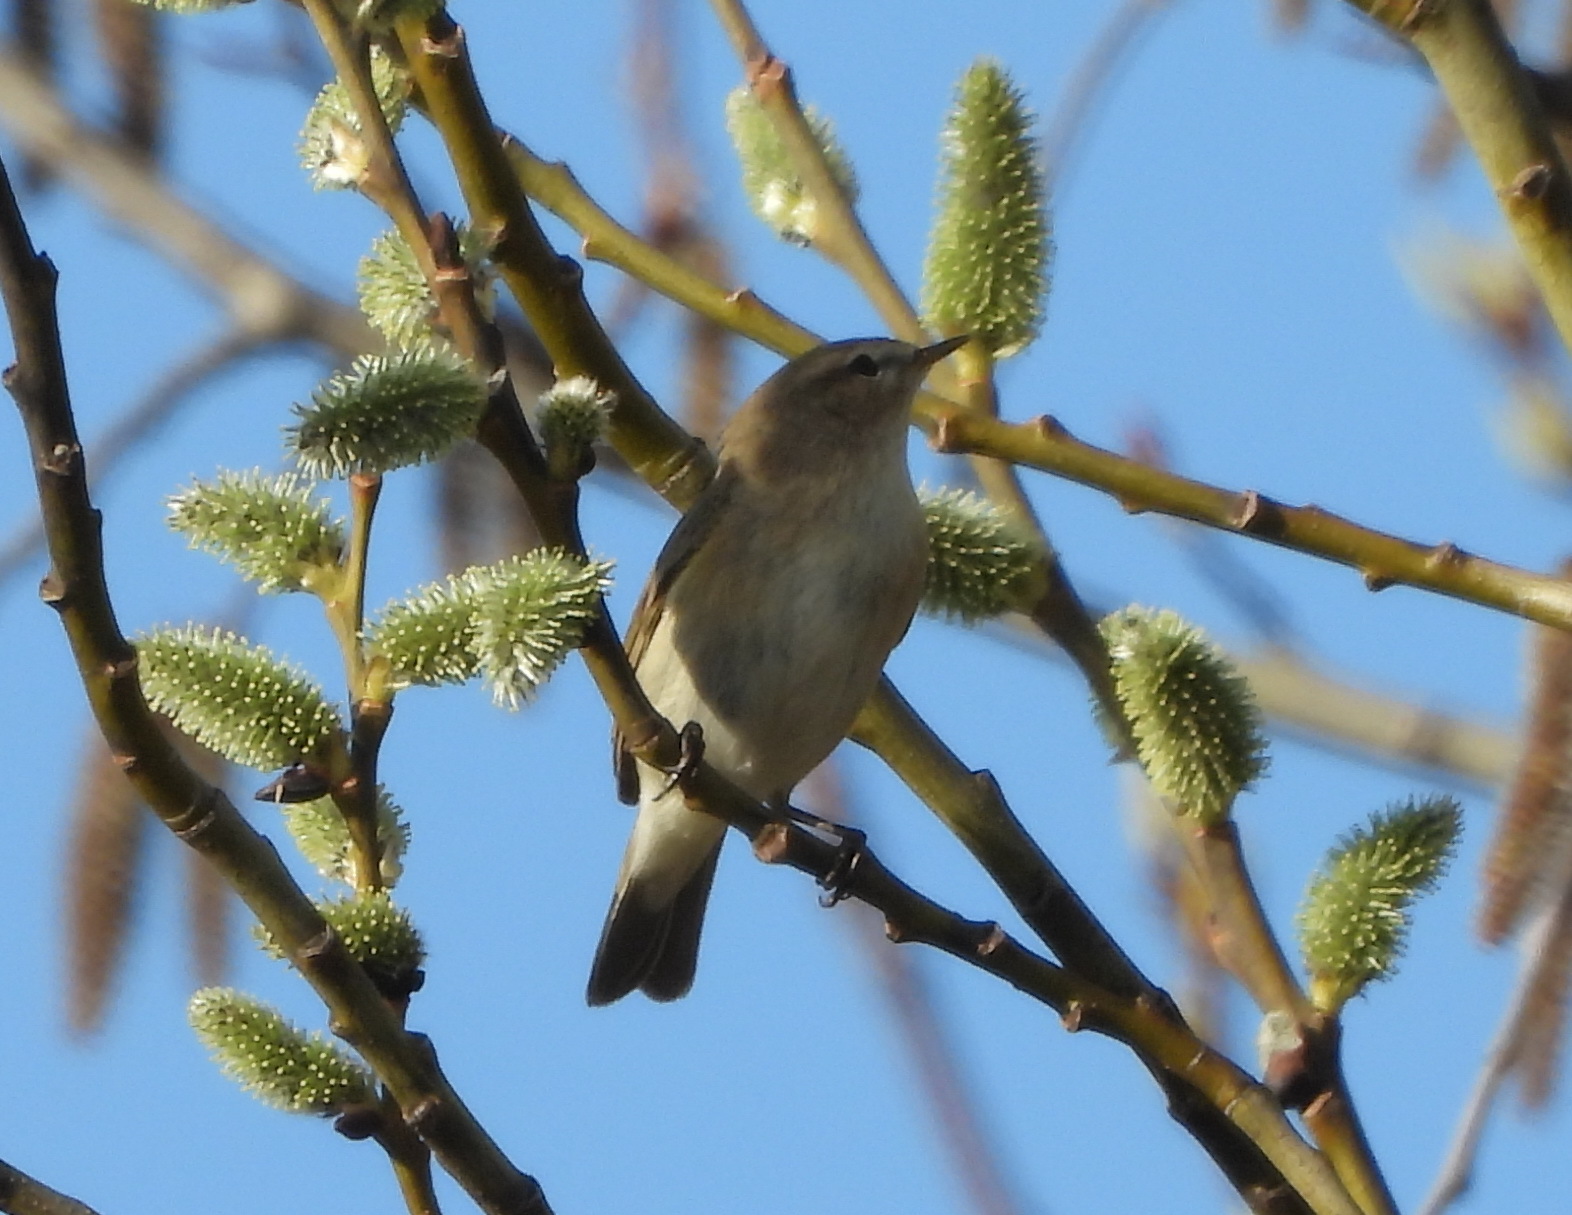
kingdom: Animalia
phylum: Chordata
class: Aves
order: Passeriformes
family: Phylloscopidae
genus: Phylloscopus
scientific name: Phylloscopus collybita
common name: Common chiffchaff
